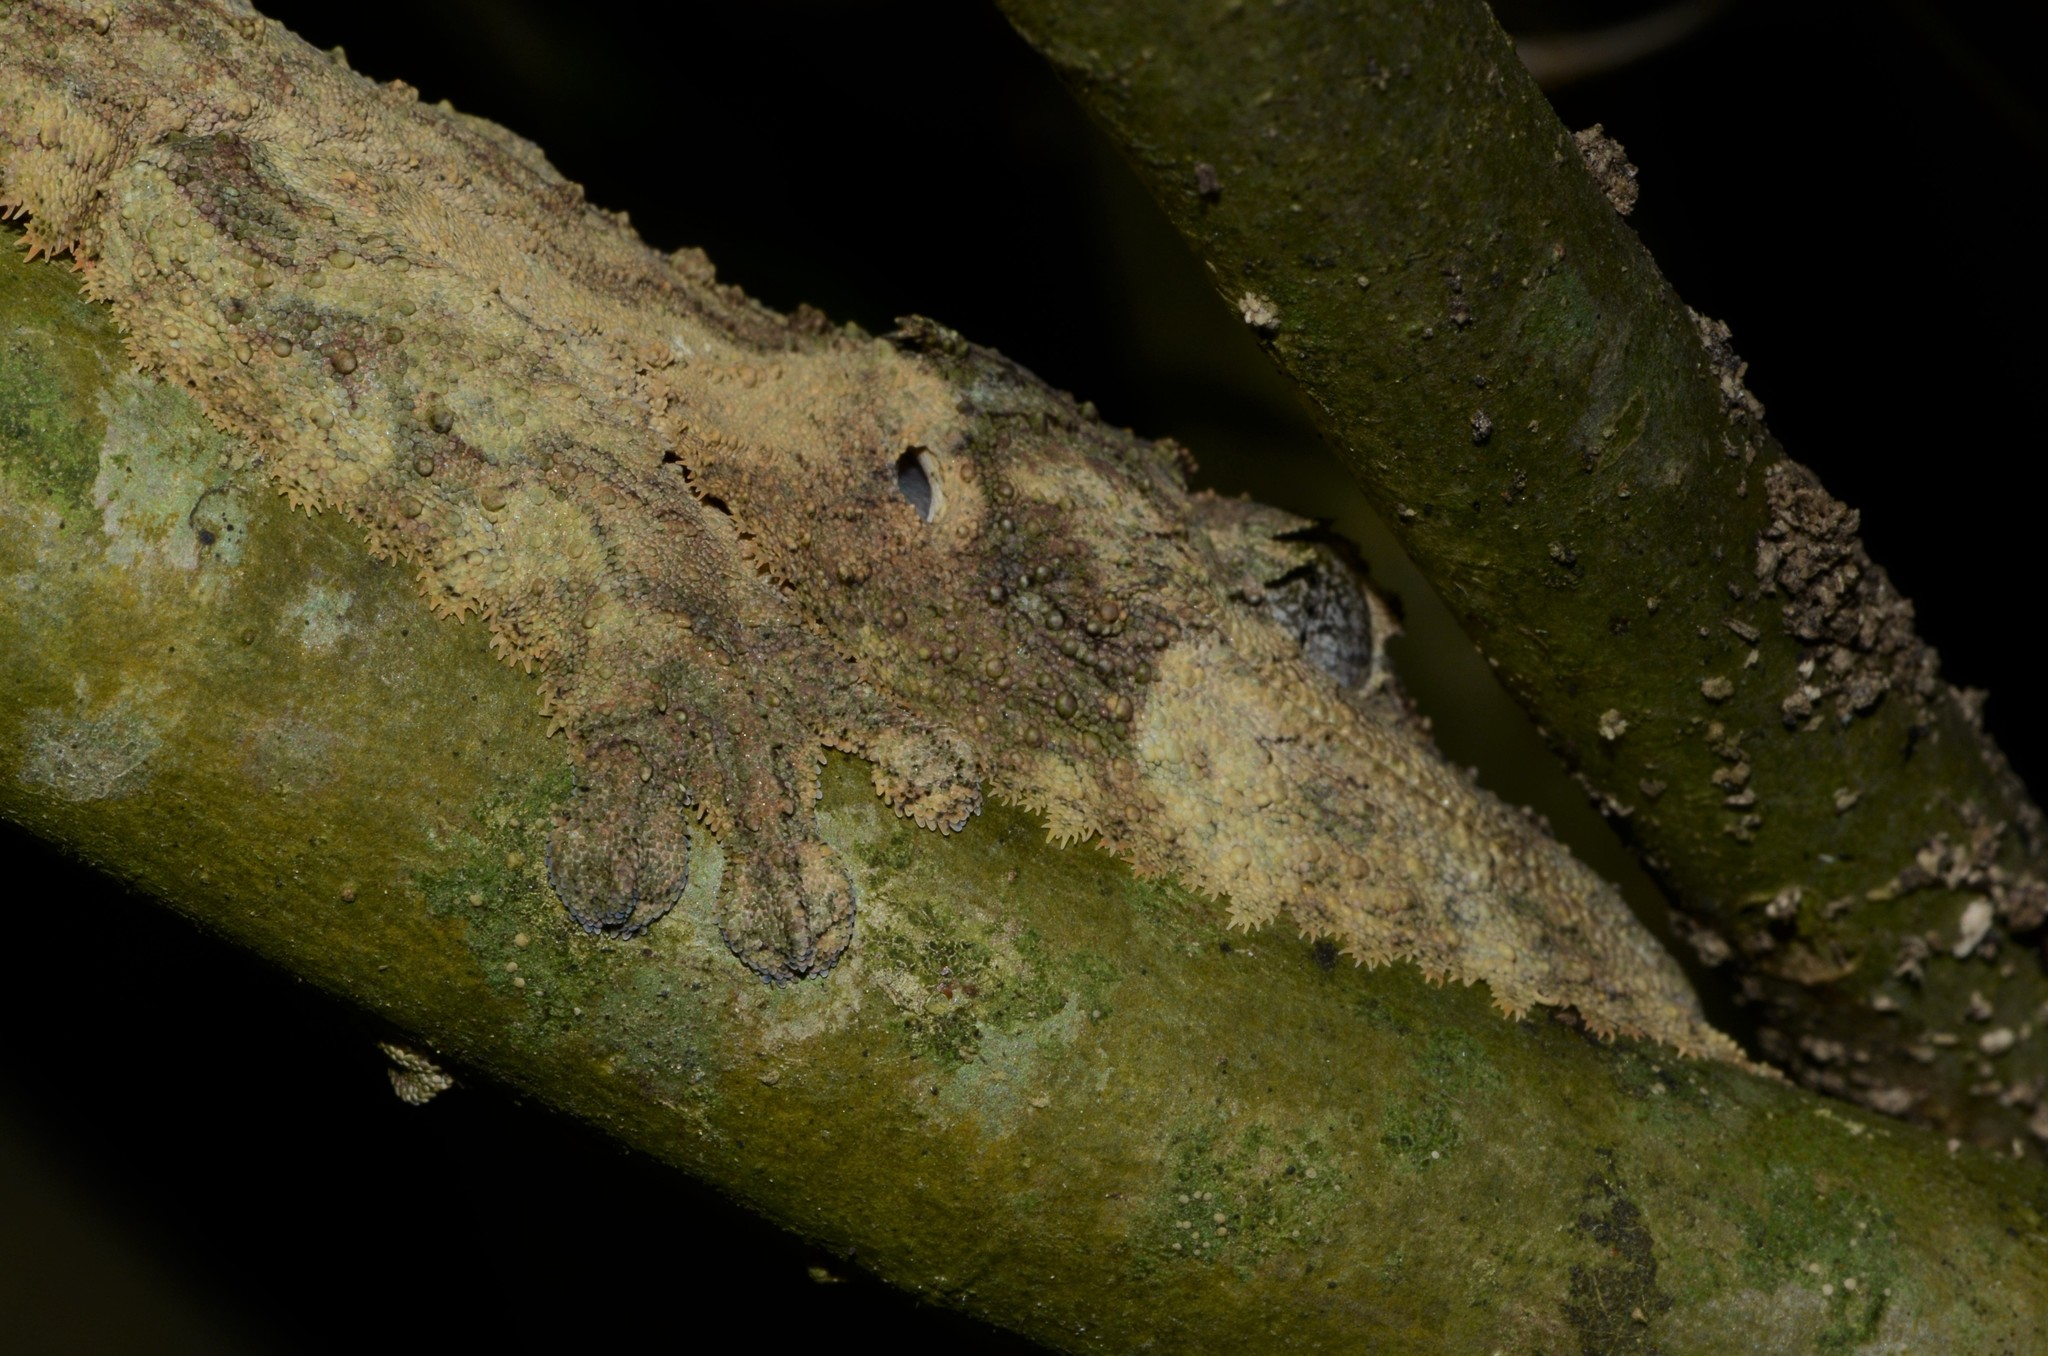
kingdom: Animalia
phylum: Chordata
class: Squamata
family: Gekkonidae
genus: Uroplatus
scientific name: Uroplatus sikorae
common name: Southern flat-tail gecko
